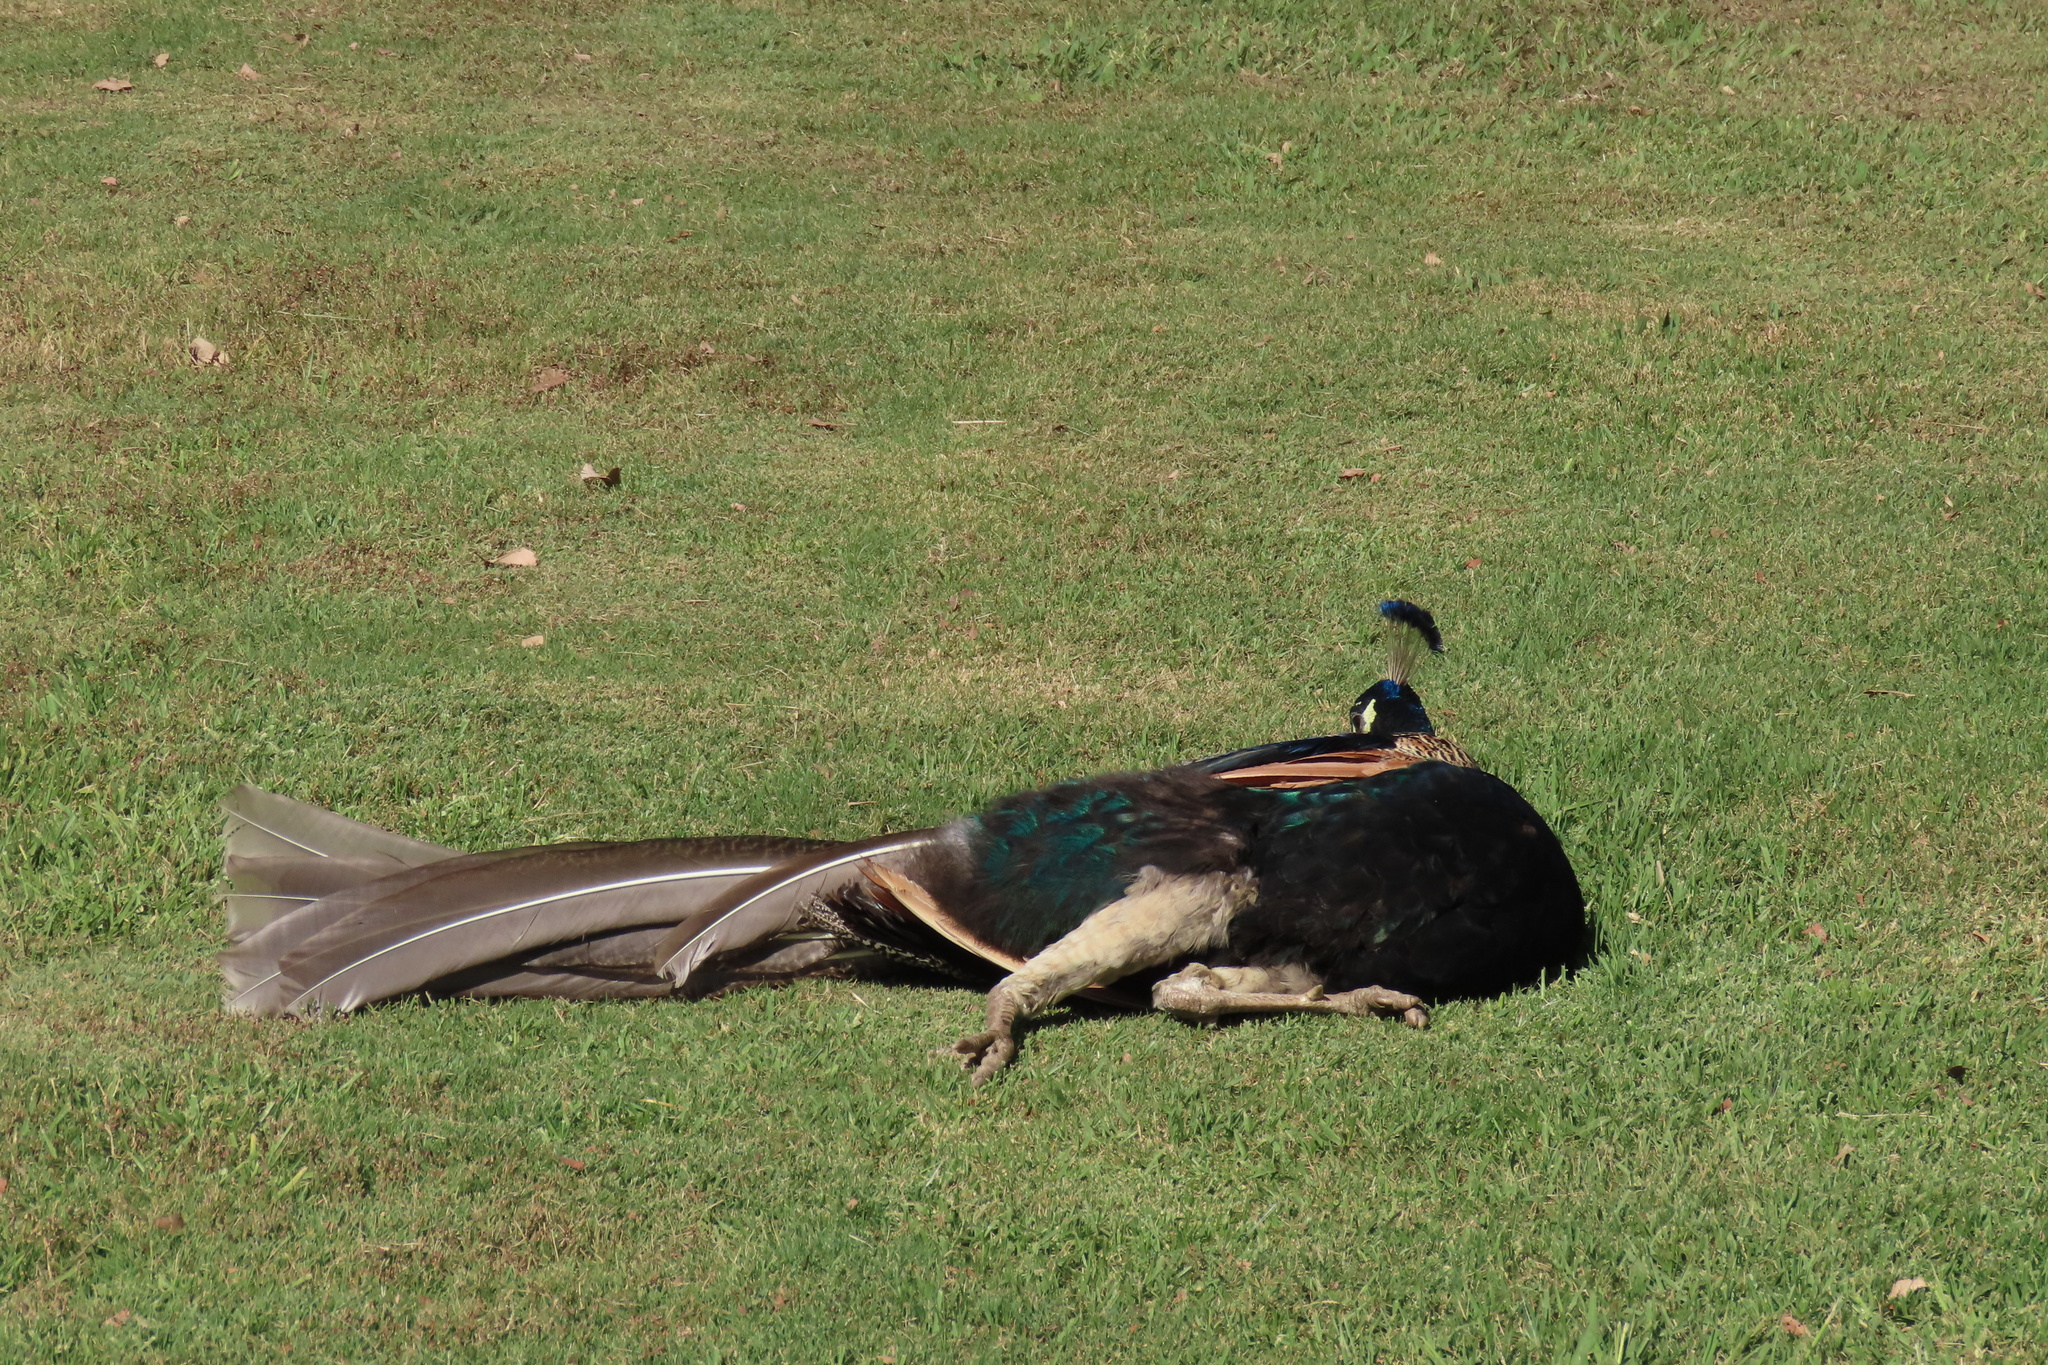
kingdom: Animalia
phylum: Chordata
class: Aves
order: Galliformes
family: Phasianidae
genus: Pavo
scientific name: Pavo cristatus
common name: Indian peafowl
